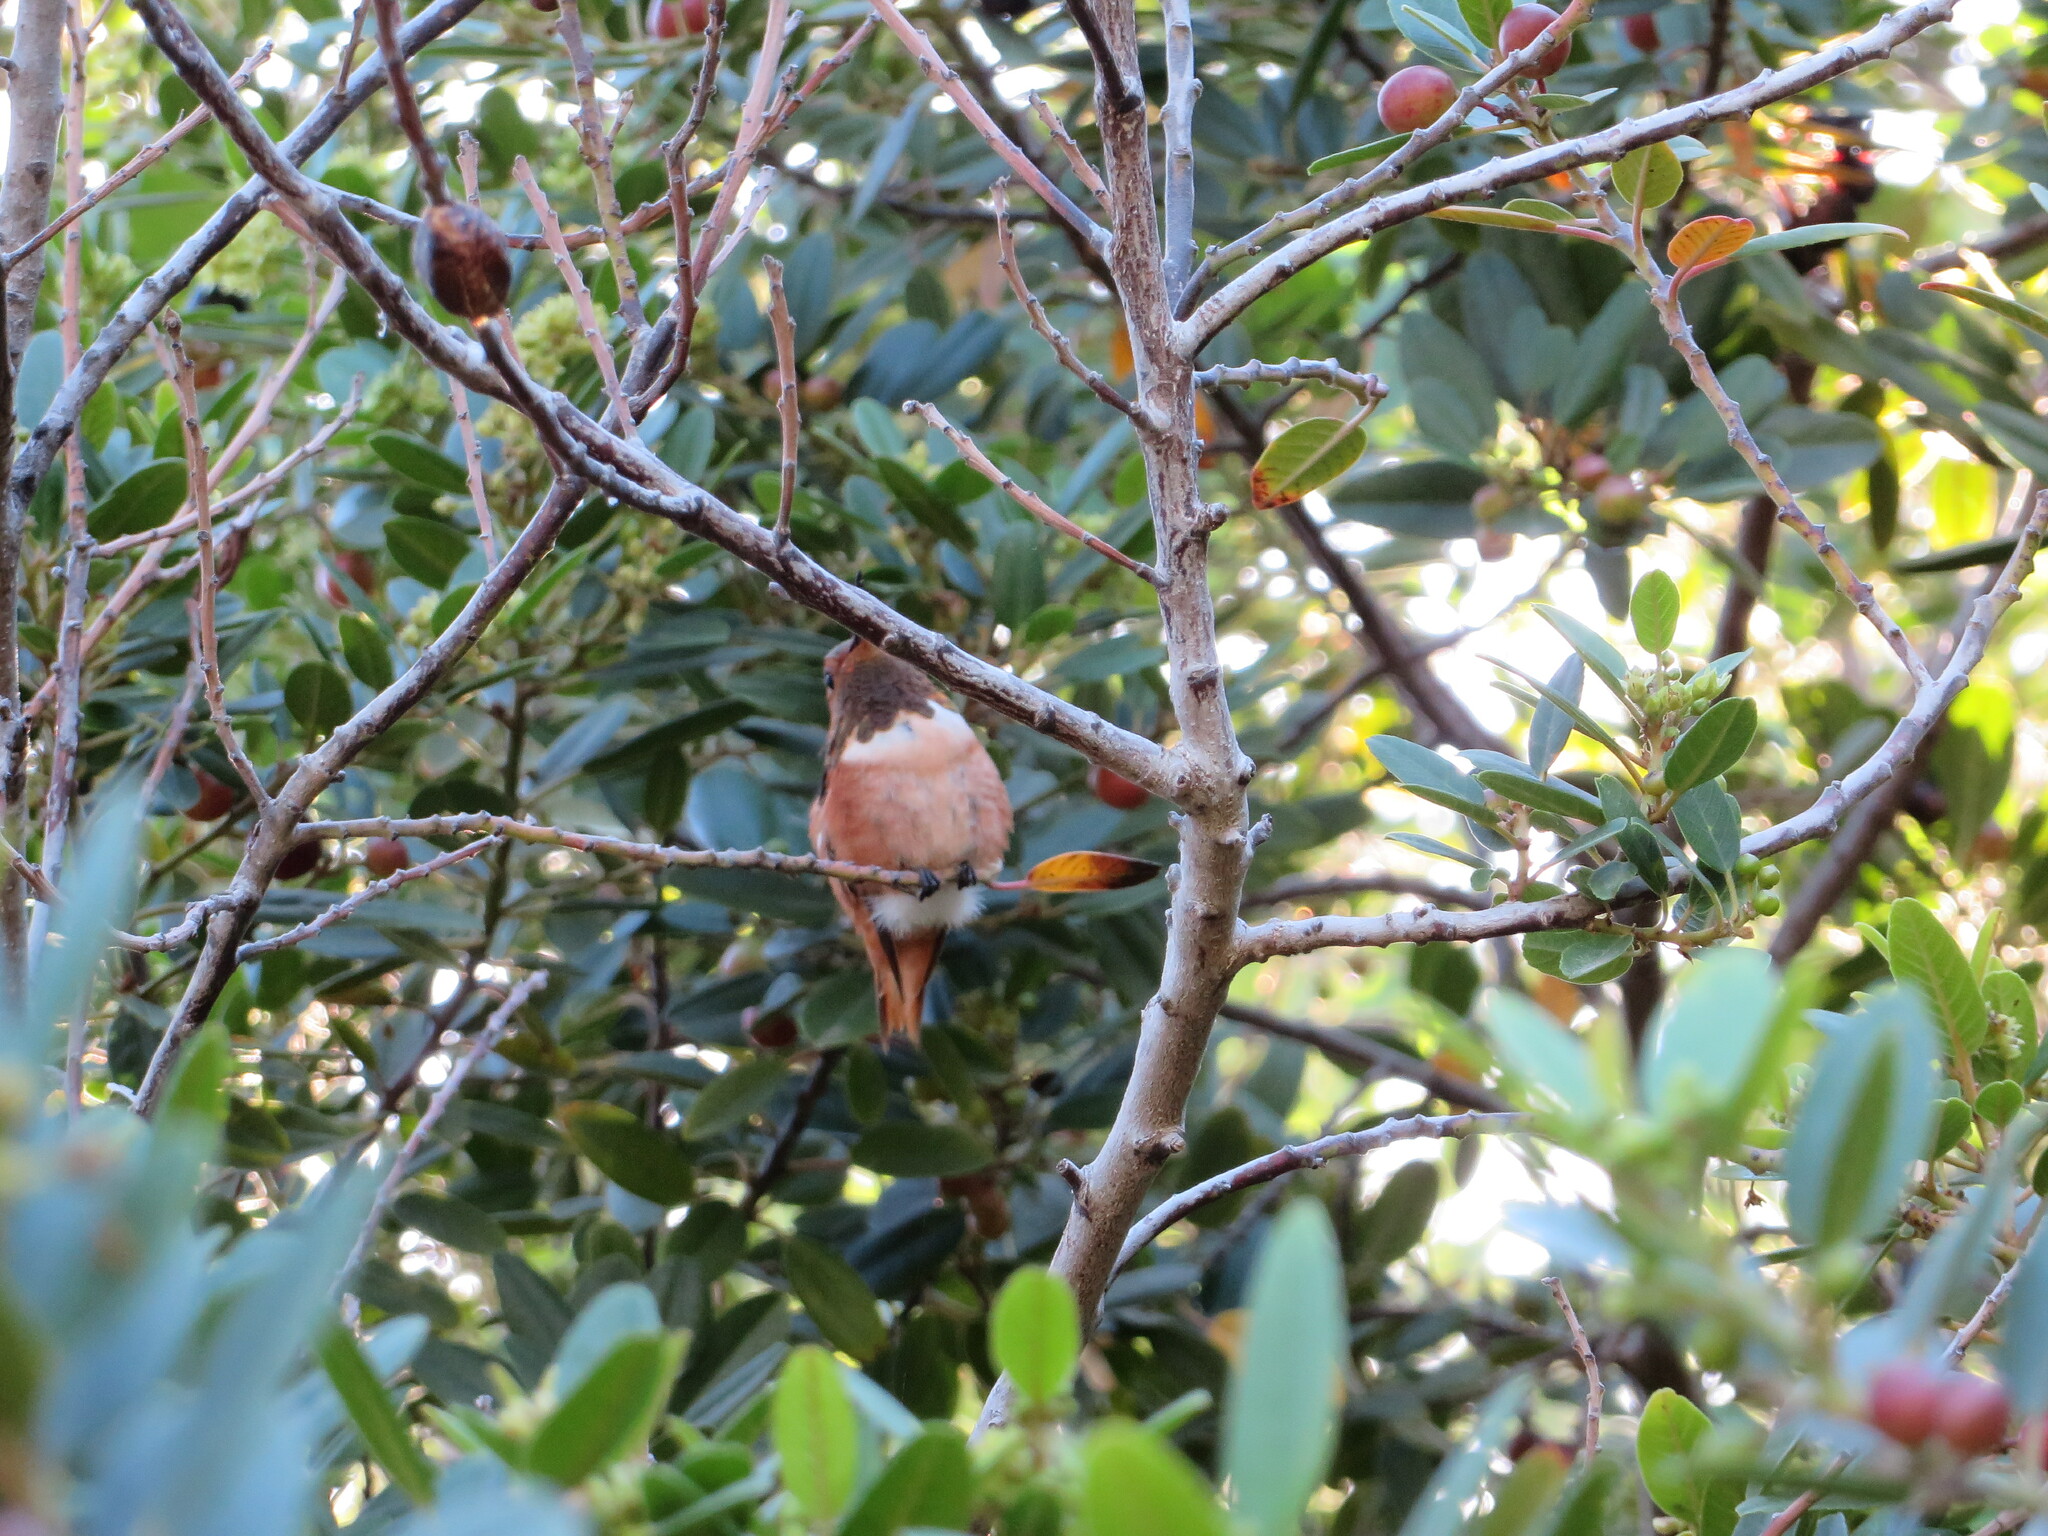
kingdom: Animalia
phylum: Chordata
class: Aves
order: Apodiformes
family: Trochilidae
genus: Selasphorus
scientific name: Selasphorus
